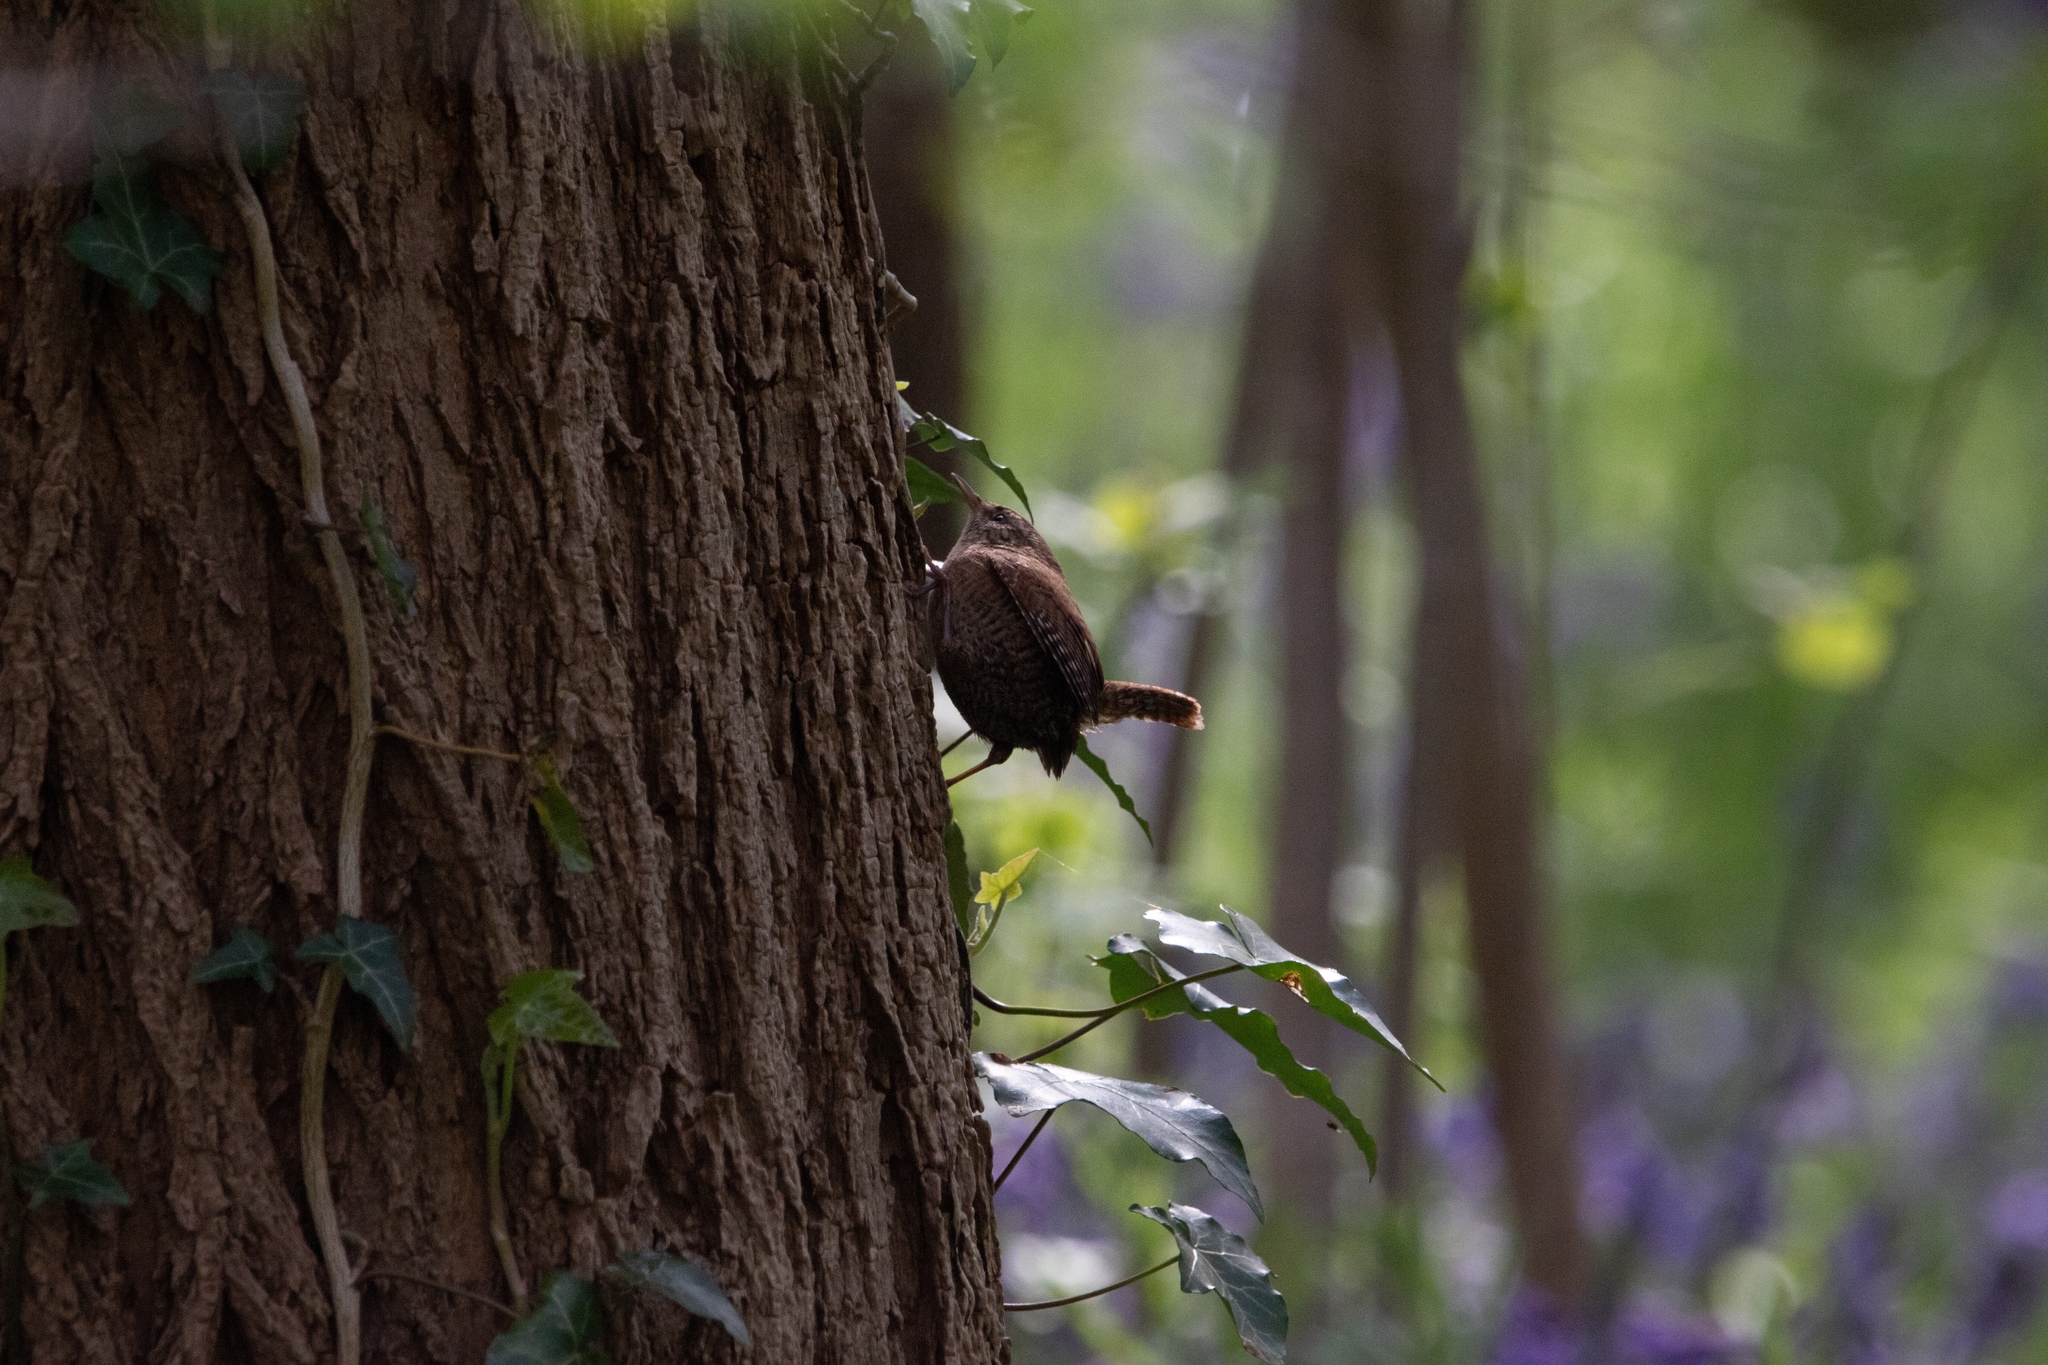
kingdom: Animalia
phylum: Chordata
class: Aves
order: Passeriformes
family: Troglodytidae
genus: Troglodytes
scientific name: Troglodytes troglodytes
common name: Eurasian wren
